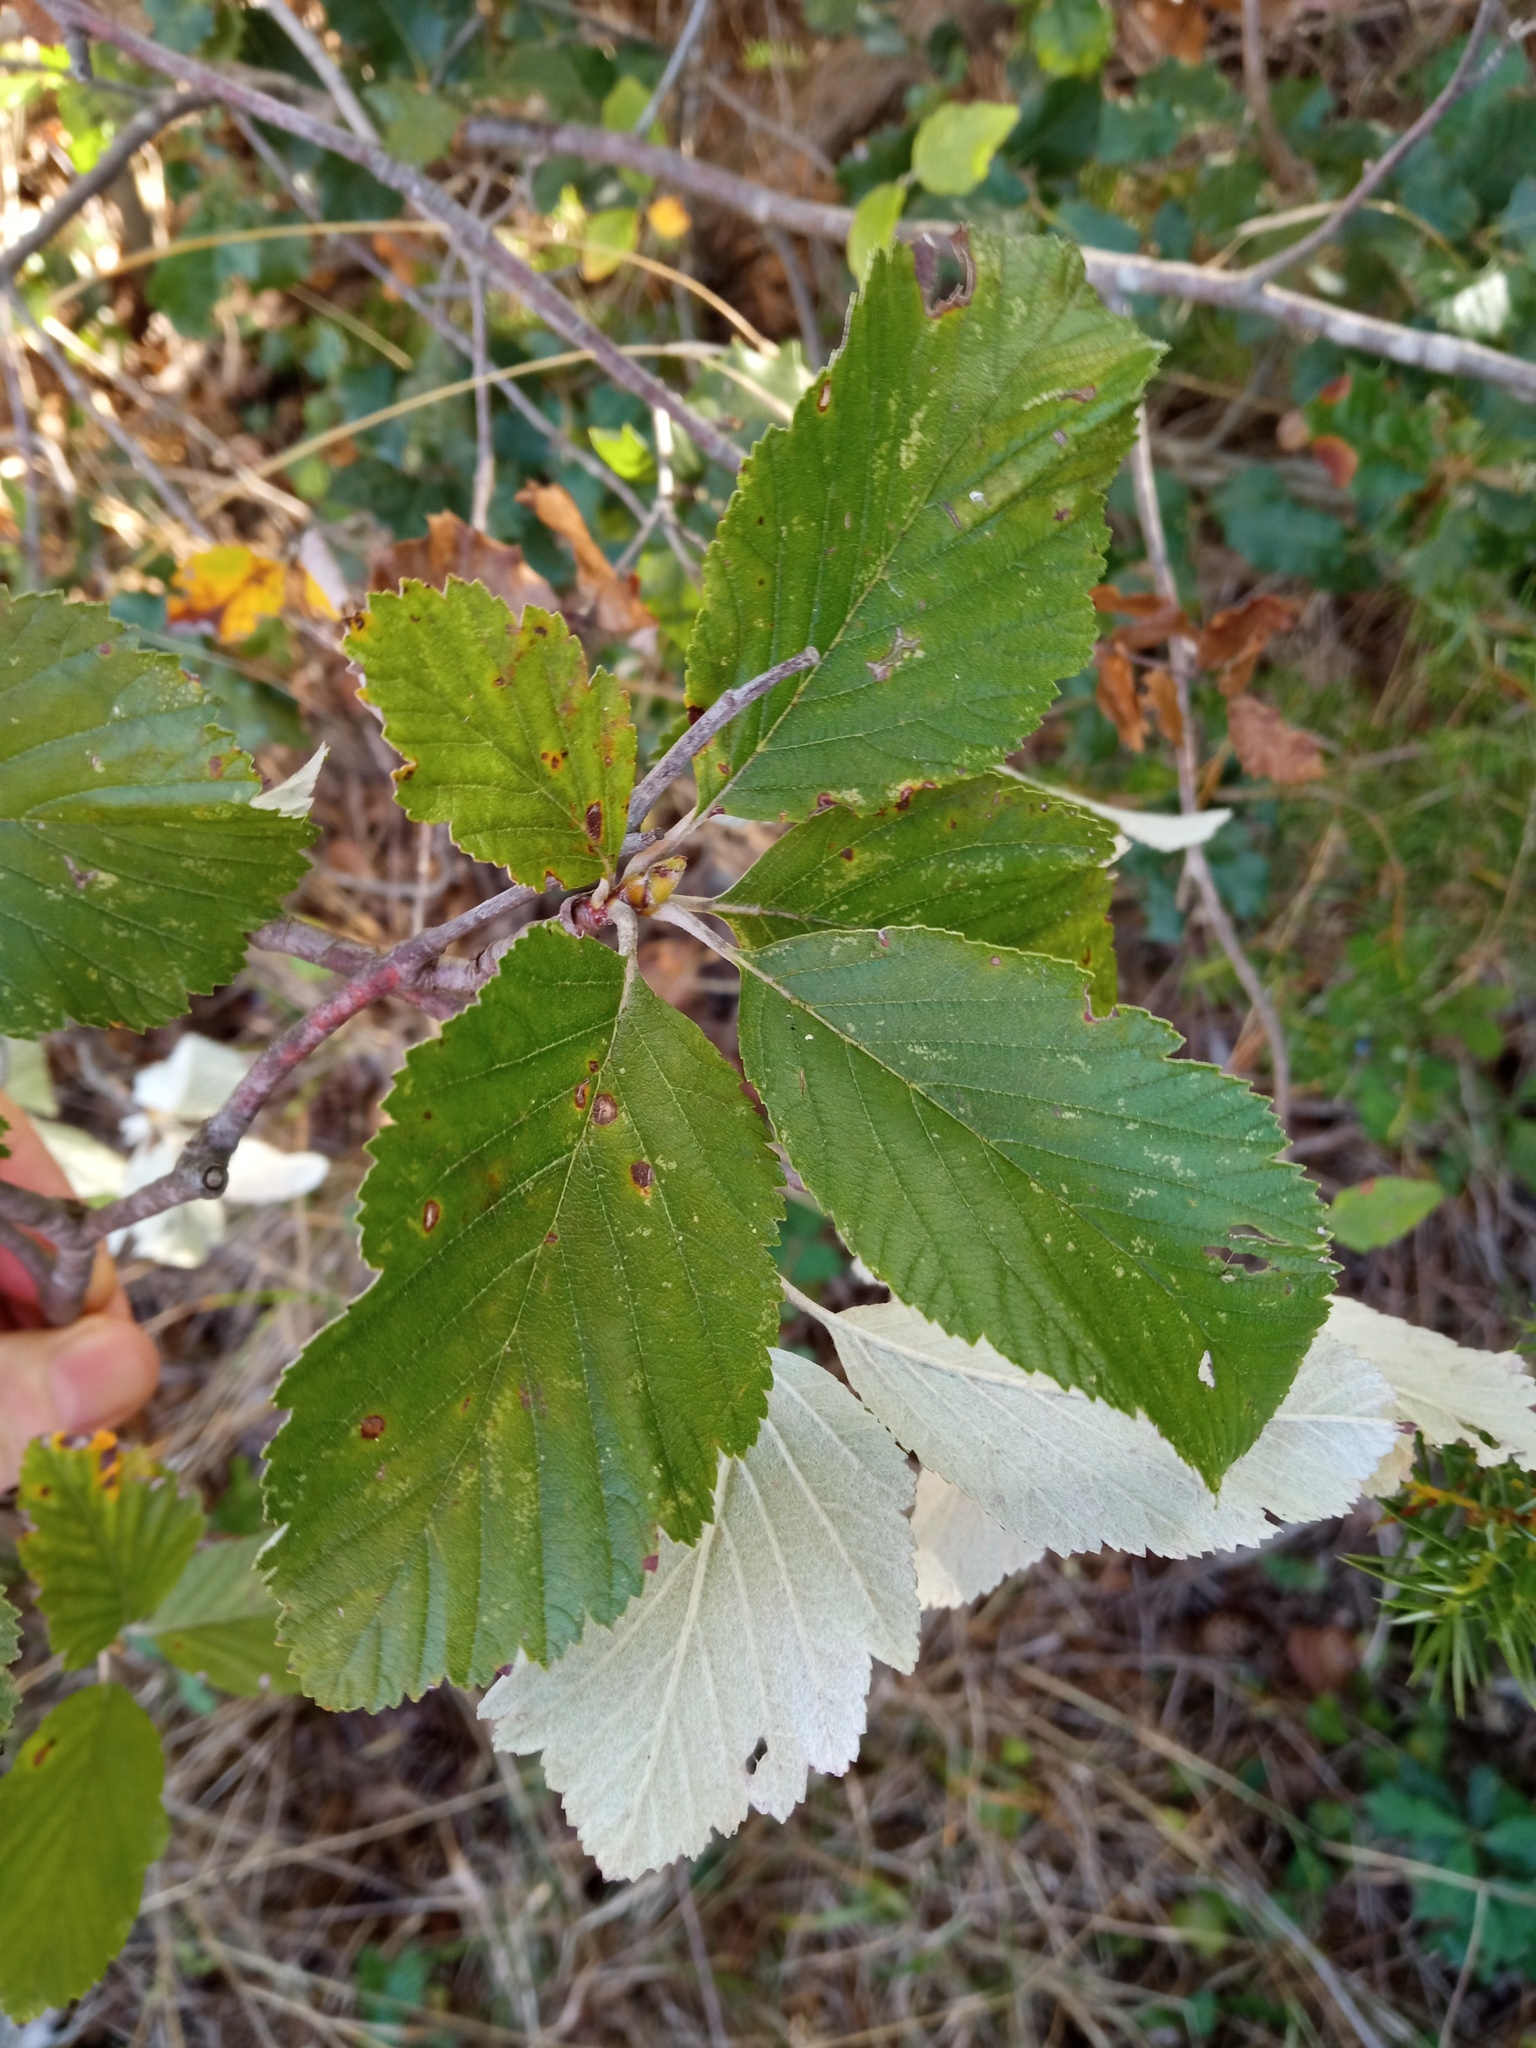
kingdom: Plantae
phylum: Tracheophyta
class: Magnoliopsida
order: Rosales
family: Rosaceae
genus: Aria
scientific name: Aria edulis
